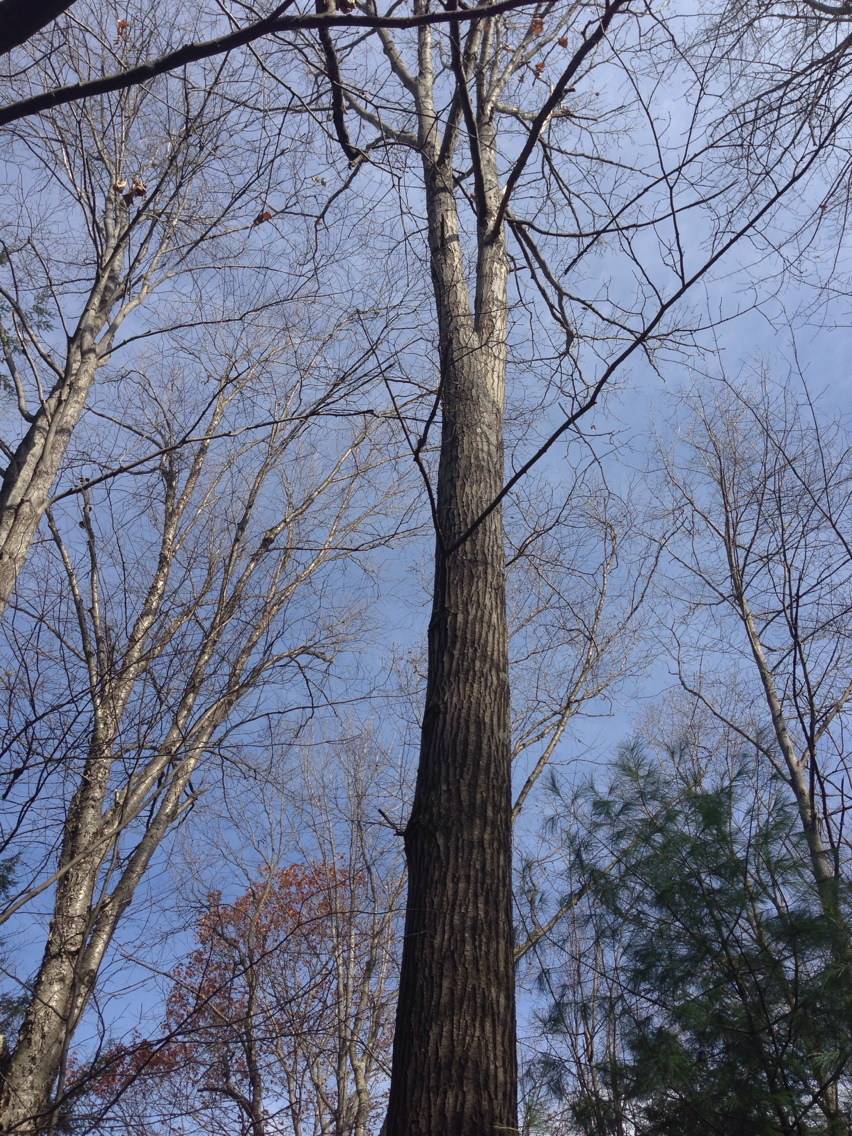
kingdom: Plantae
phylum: Tracheophyta
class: Magnoliopsida
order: Fagales
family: Fagaceae
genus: Quercus
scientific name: Quercus rubra
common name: Red oak
